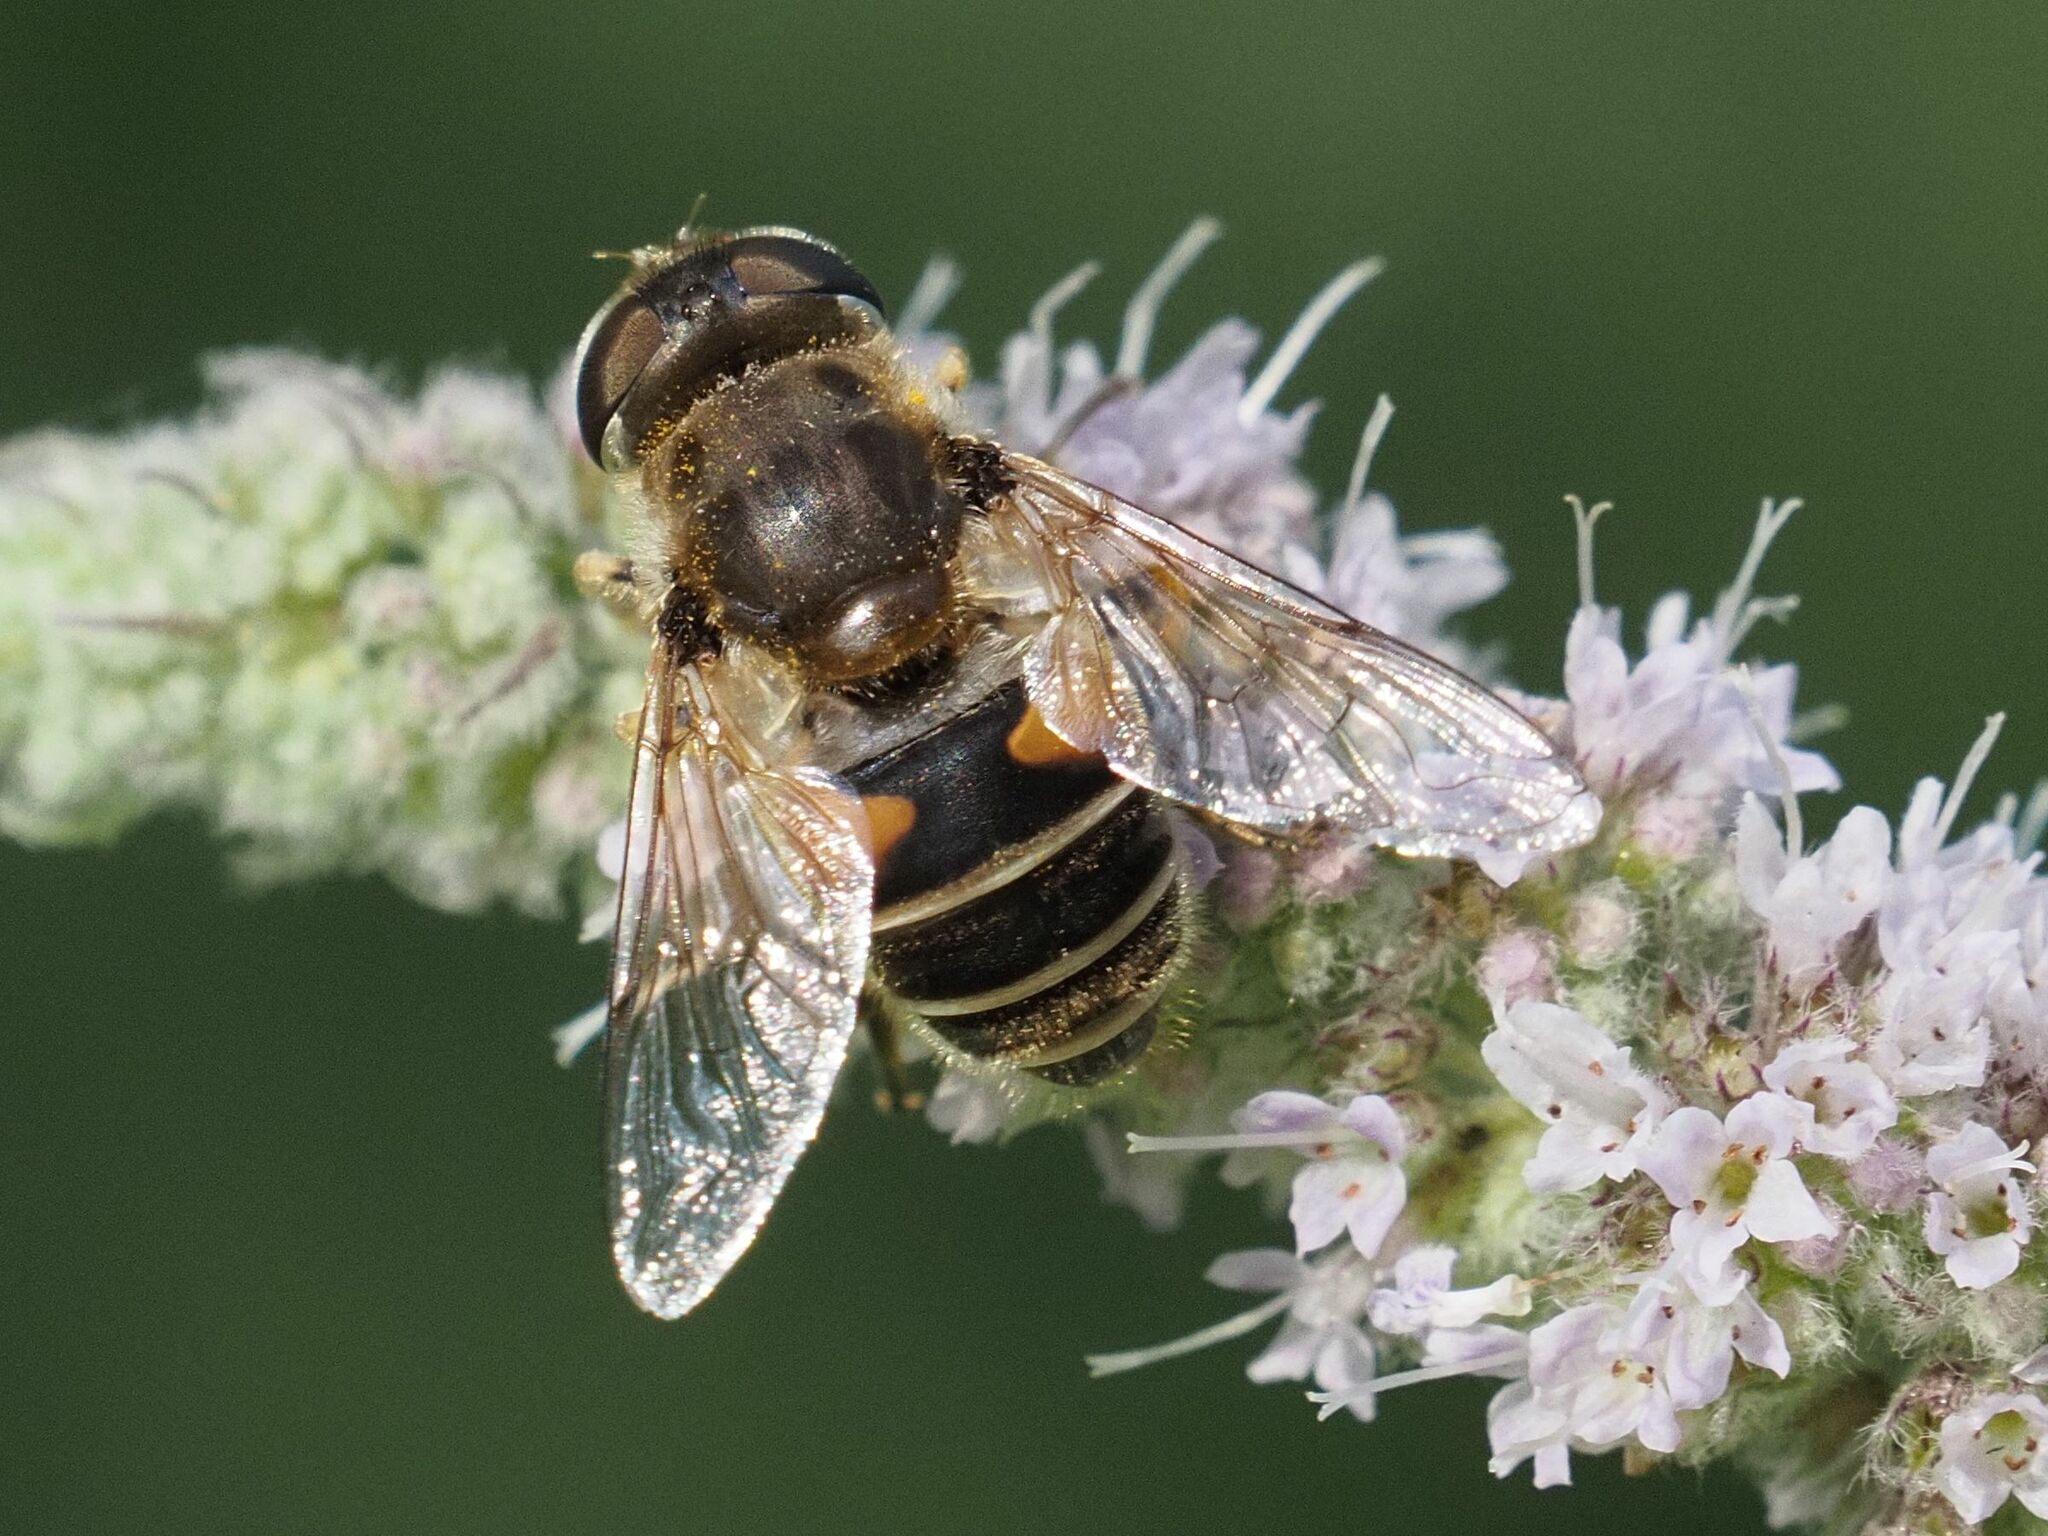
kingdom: Animalia
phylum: Arthropoda
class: Insecta
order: Diptera
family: Syrphidae
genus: Eristalis
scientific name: Eristalis arbustorum
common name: Hover fly
